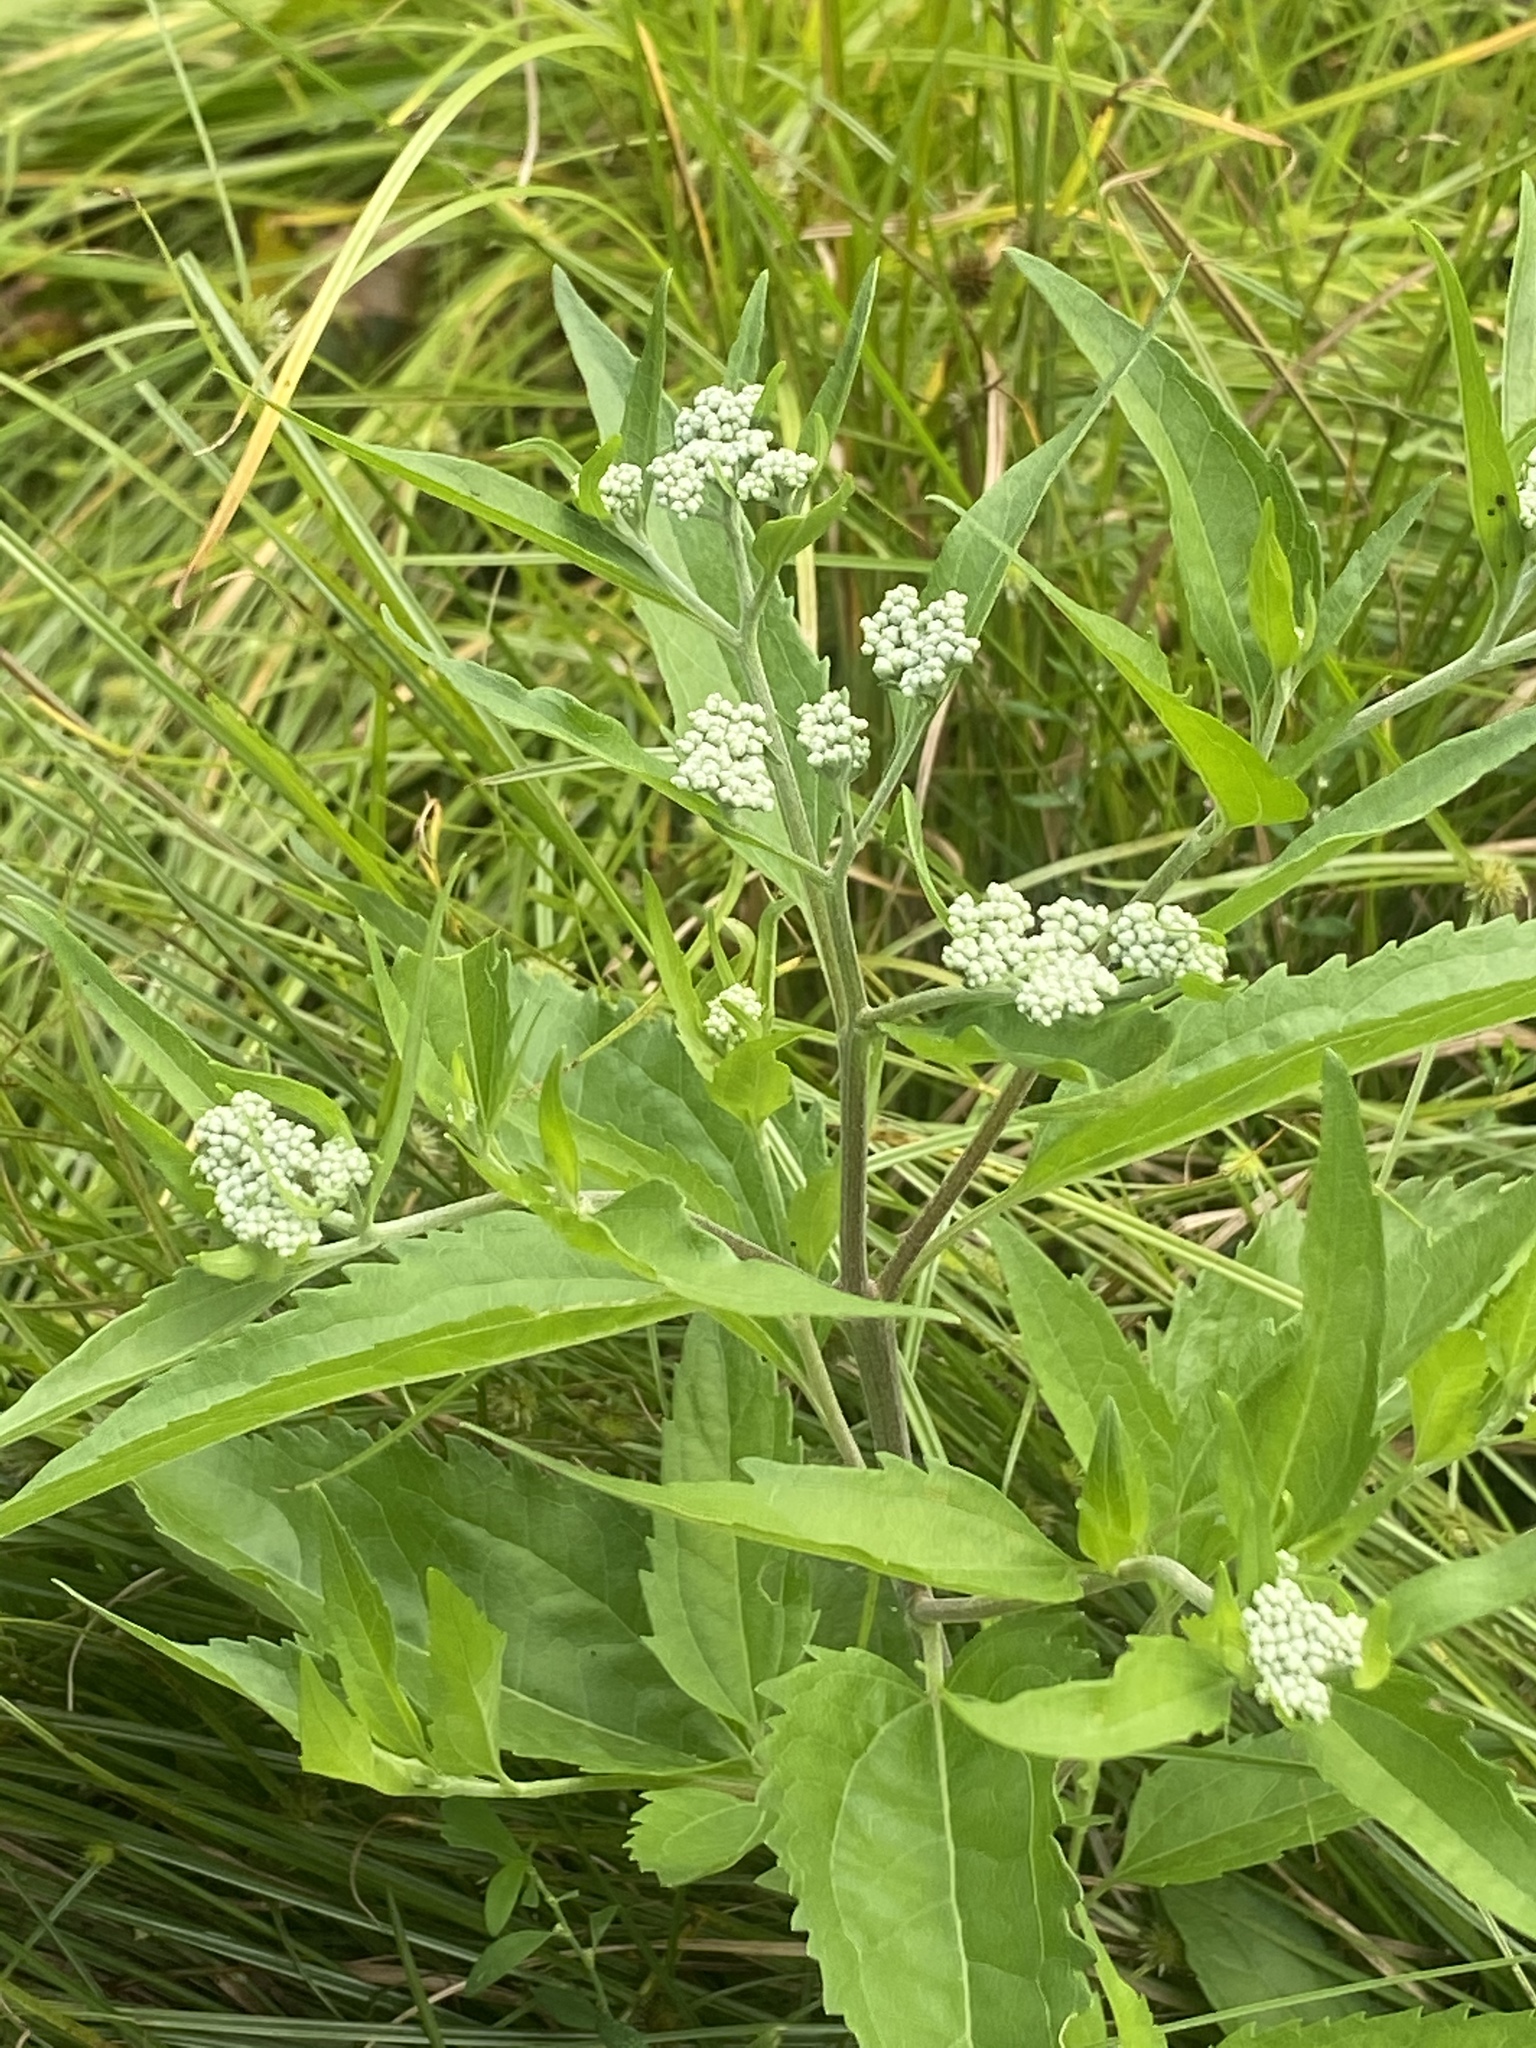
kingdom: Plantae
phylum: Tracheophyta
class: Magnoliopsida
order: Asterales
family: Asteraceae
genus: Eupatorium
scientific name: Eupatorium serotinum
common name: Late boneset
